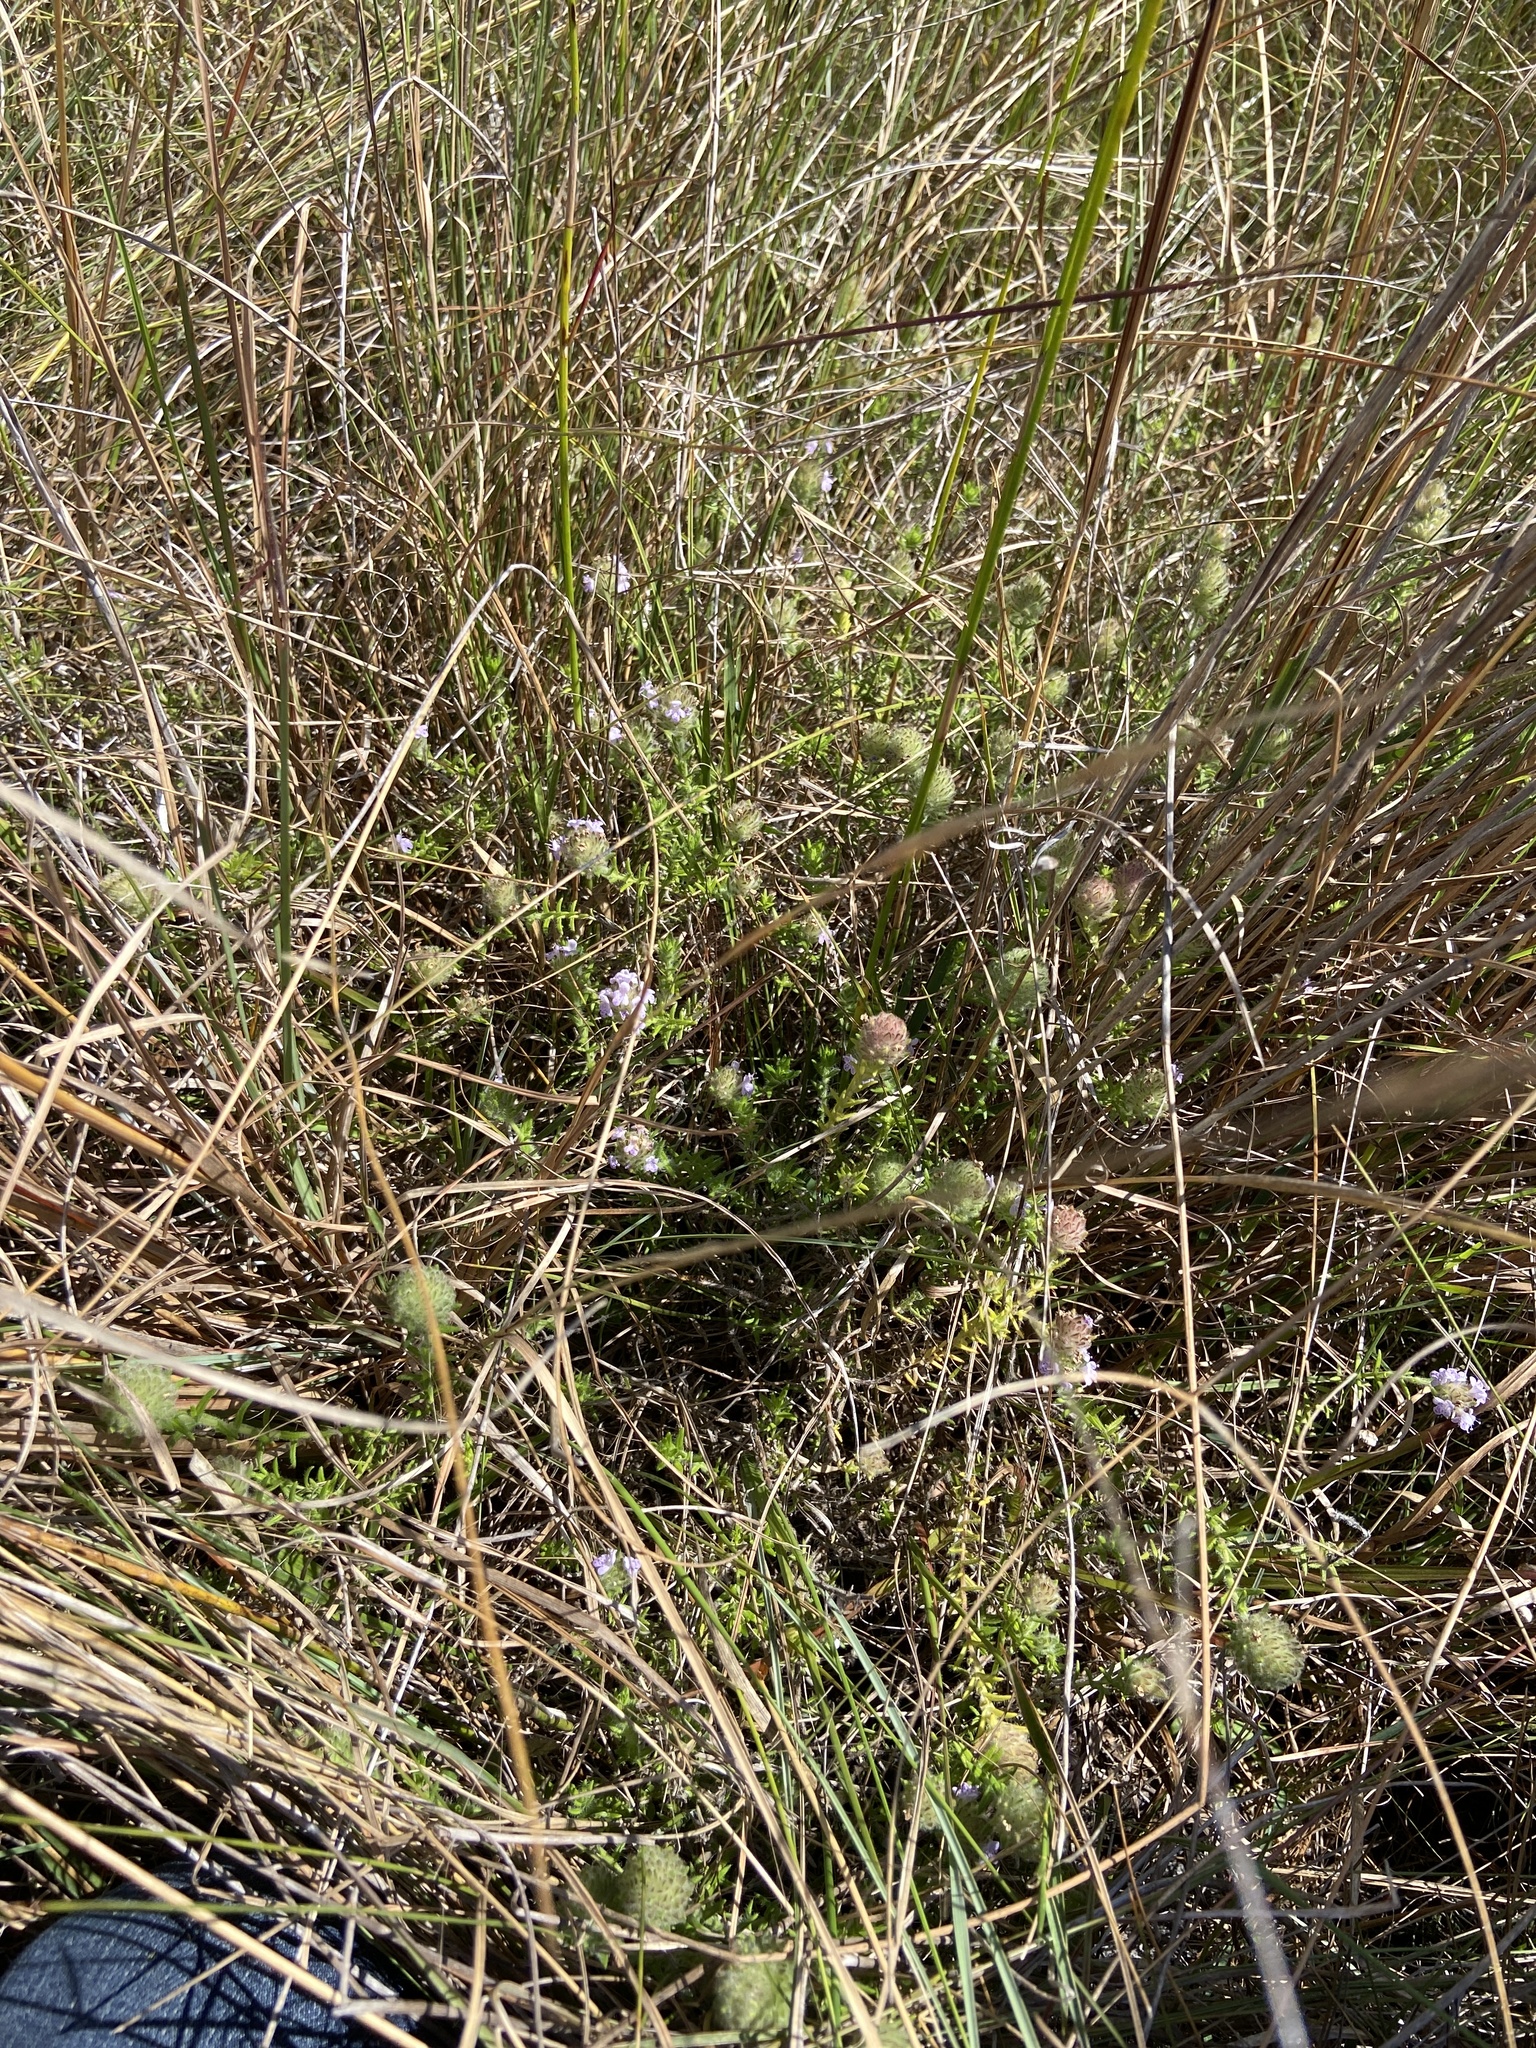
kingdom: Plantae
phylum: Tracheophyta
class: Magnoliopsida
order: Lamiales
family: Lamiaceae
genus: Piloblephis
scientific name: Piloblephis rigida
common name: Wild pennyroyal
